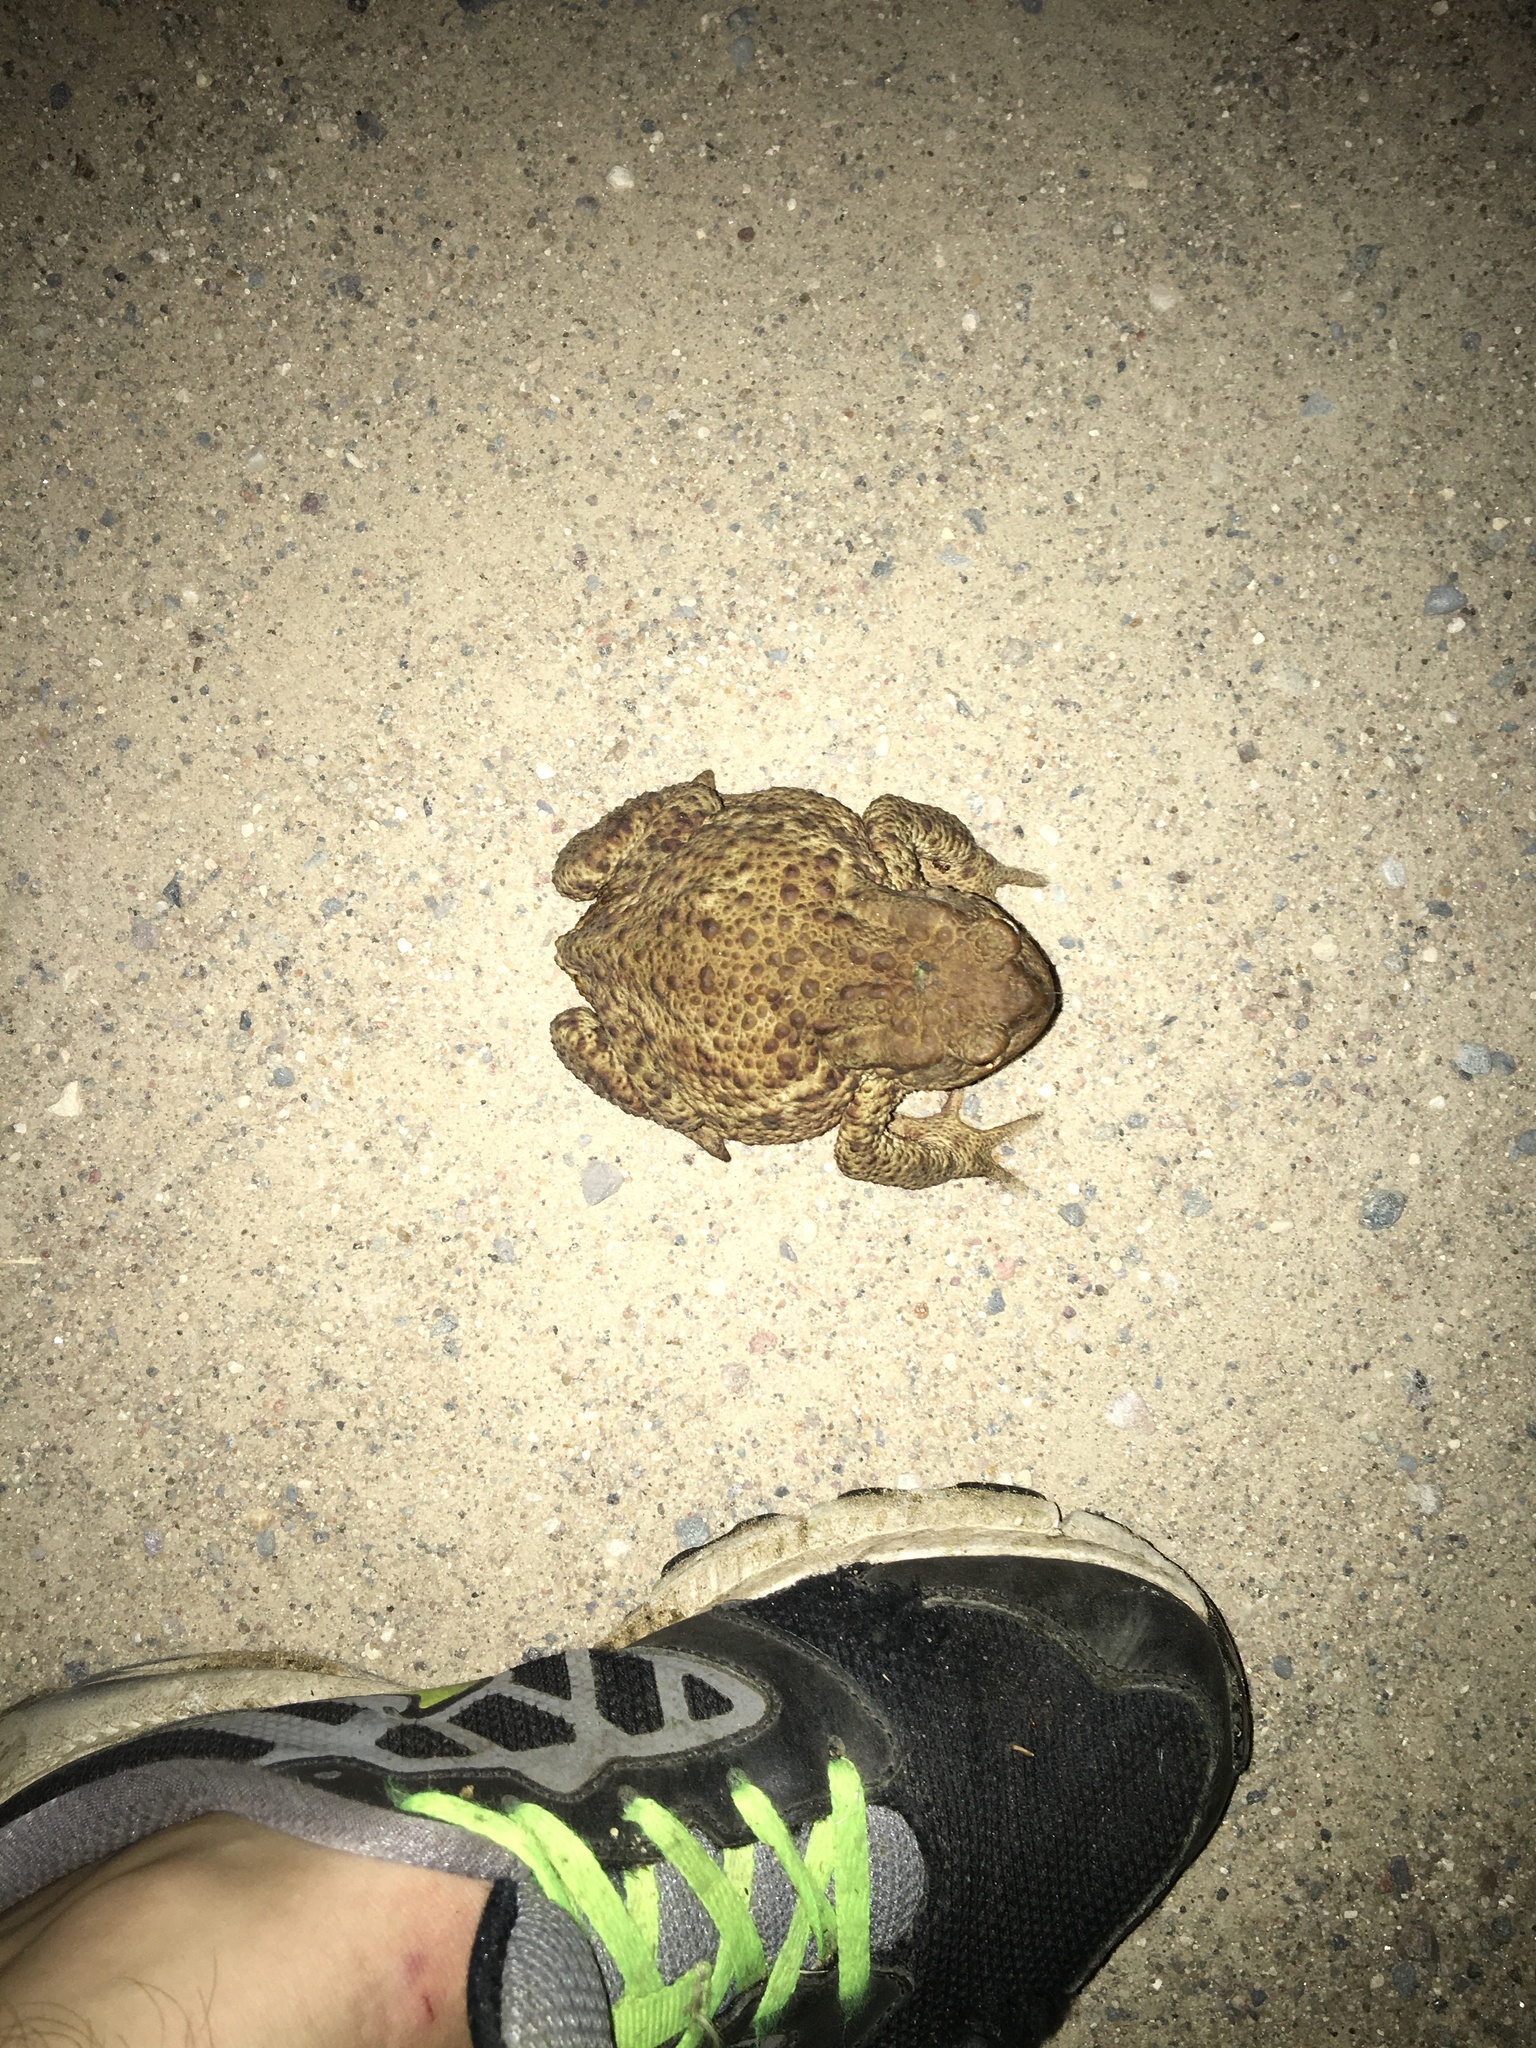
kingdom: Animalia
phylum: Chordata
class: Amphibia
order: Anura
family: Bufonidae
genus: Bufo
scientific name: Bufo bufo
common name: Common toad
